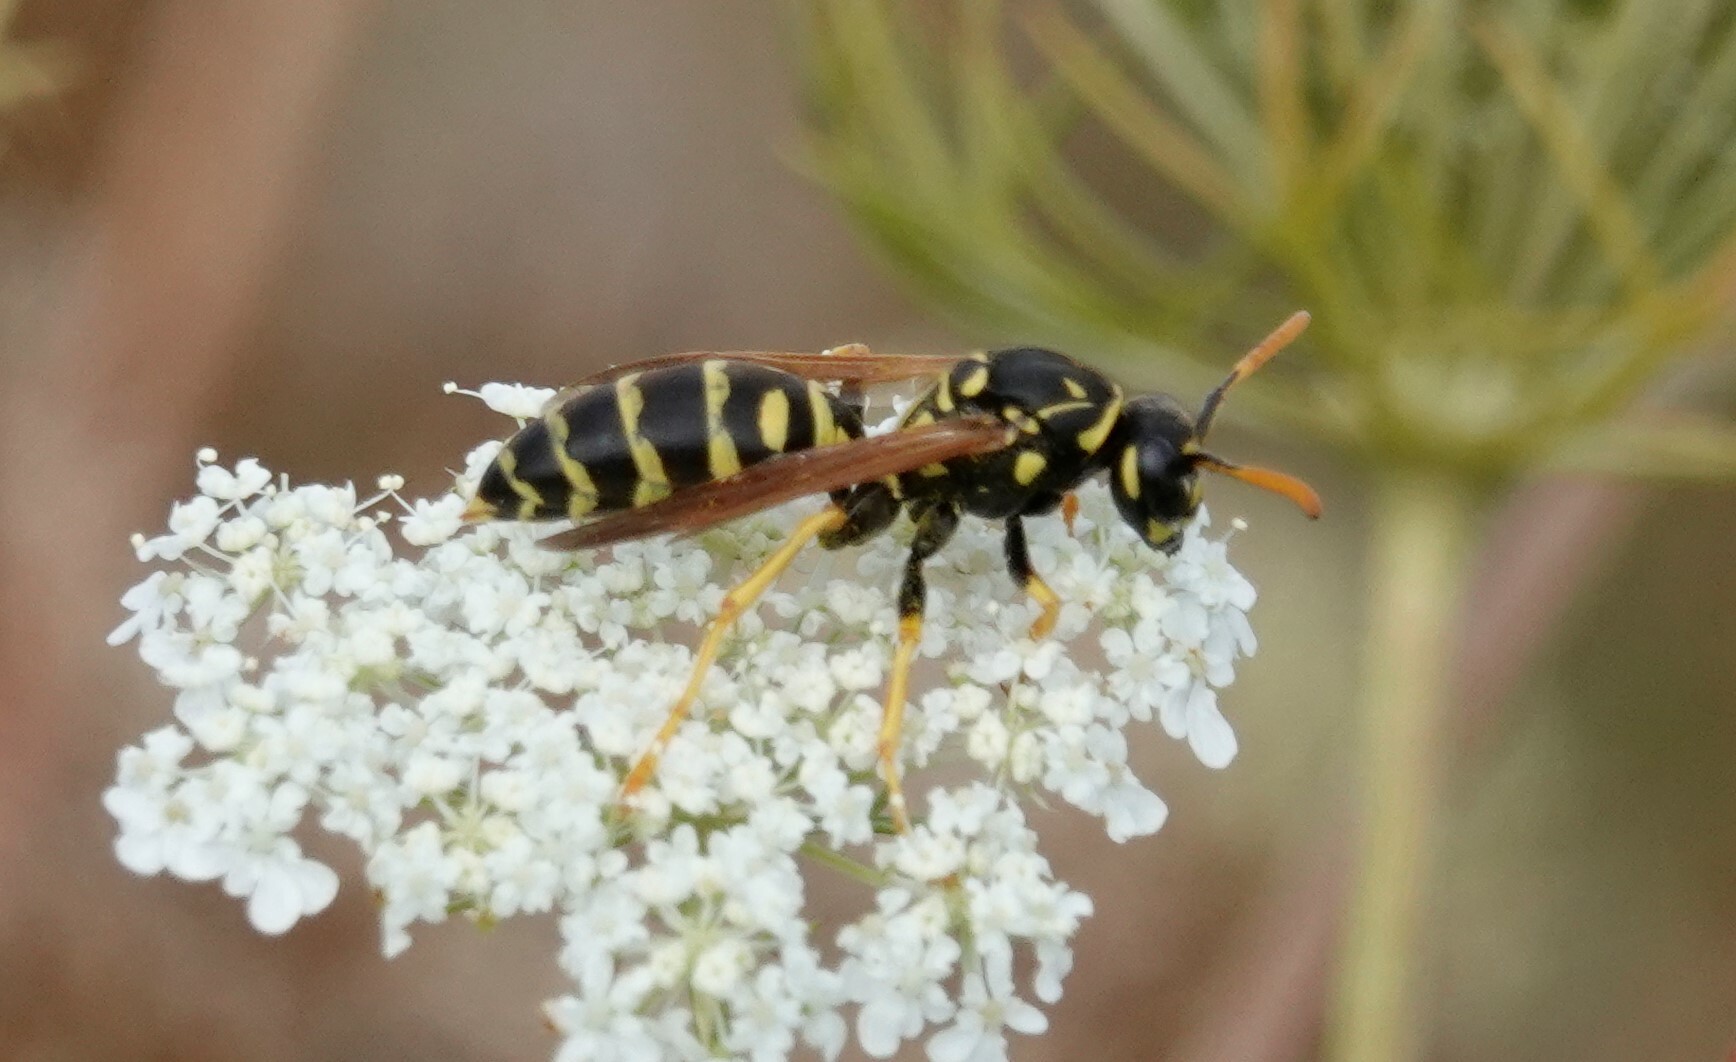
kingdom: Animalia
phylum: Arthropoda
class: Insecta
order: Hymenoptera
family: Eumenidae
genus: Polistes
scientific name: Polistes dominula
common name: Paper wasp
